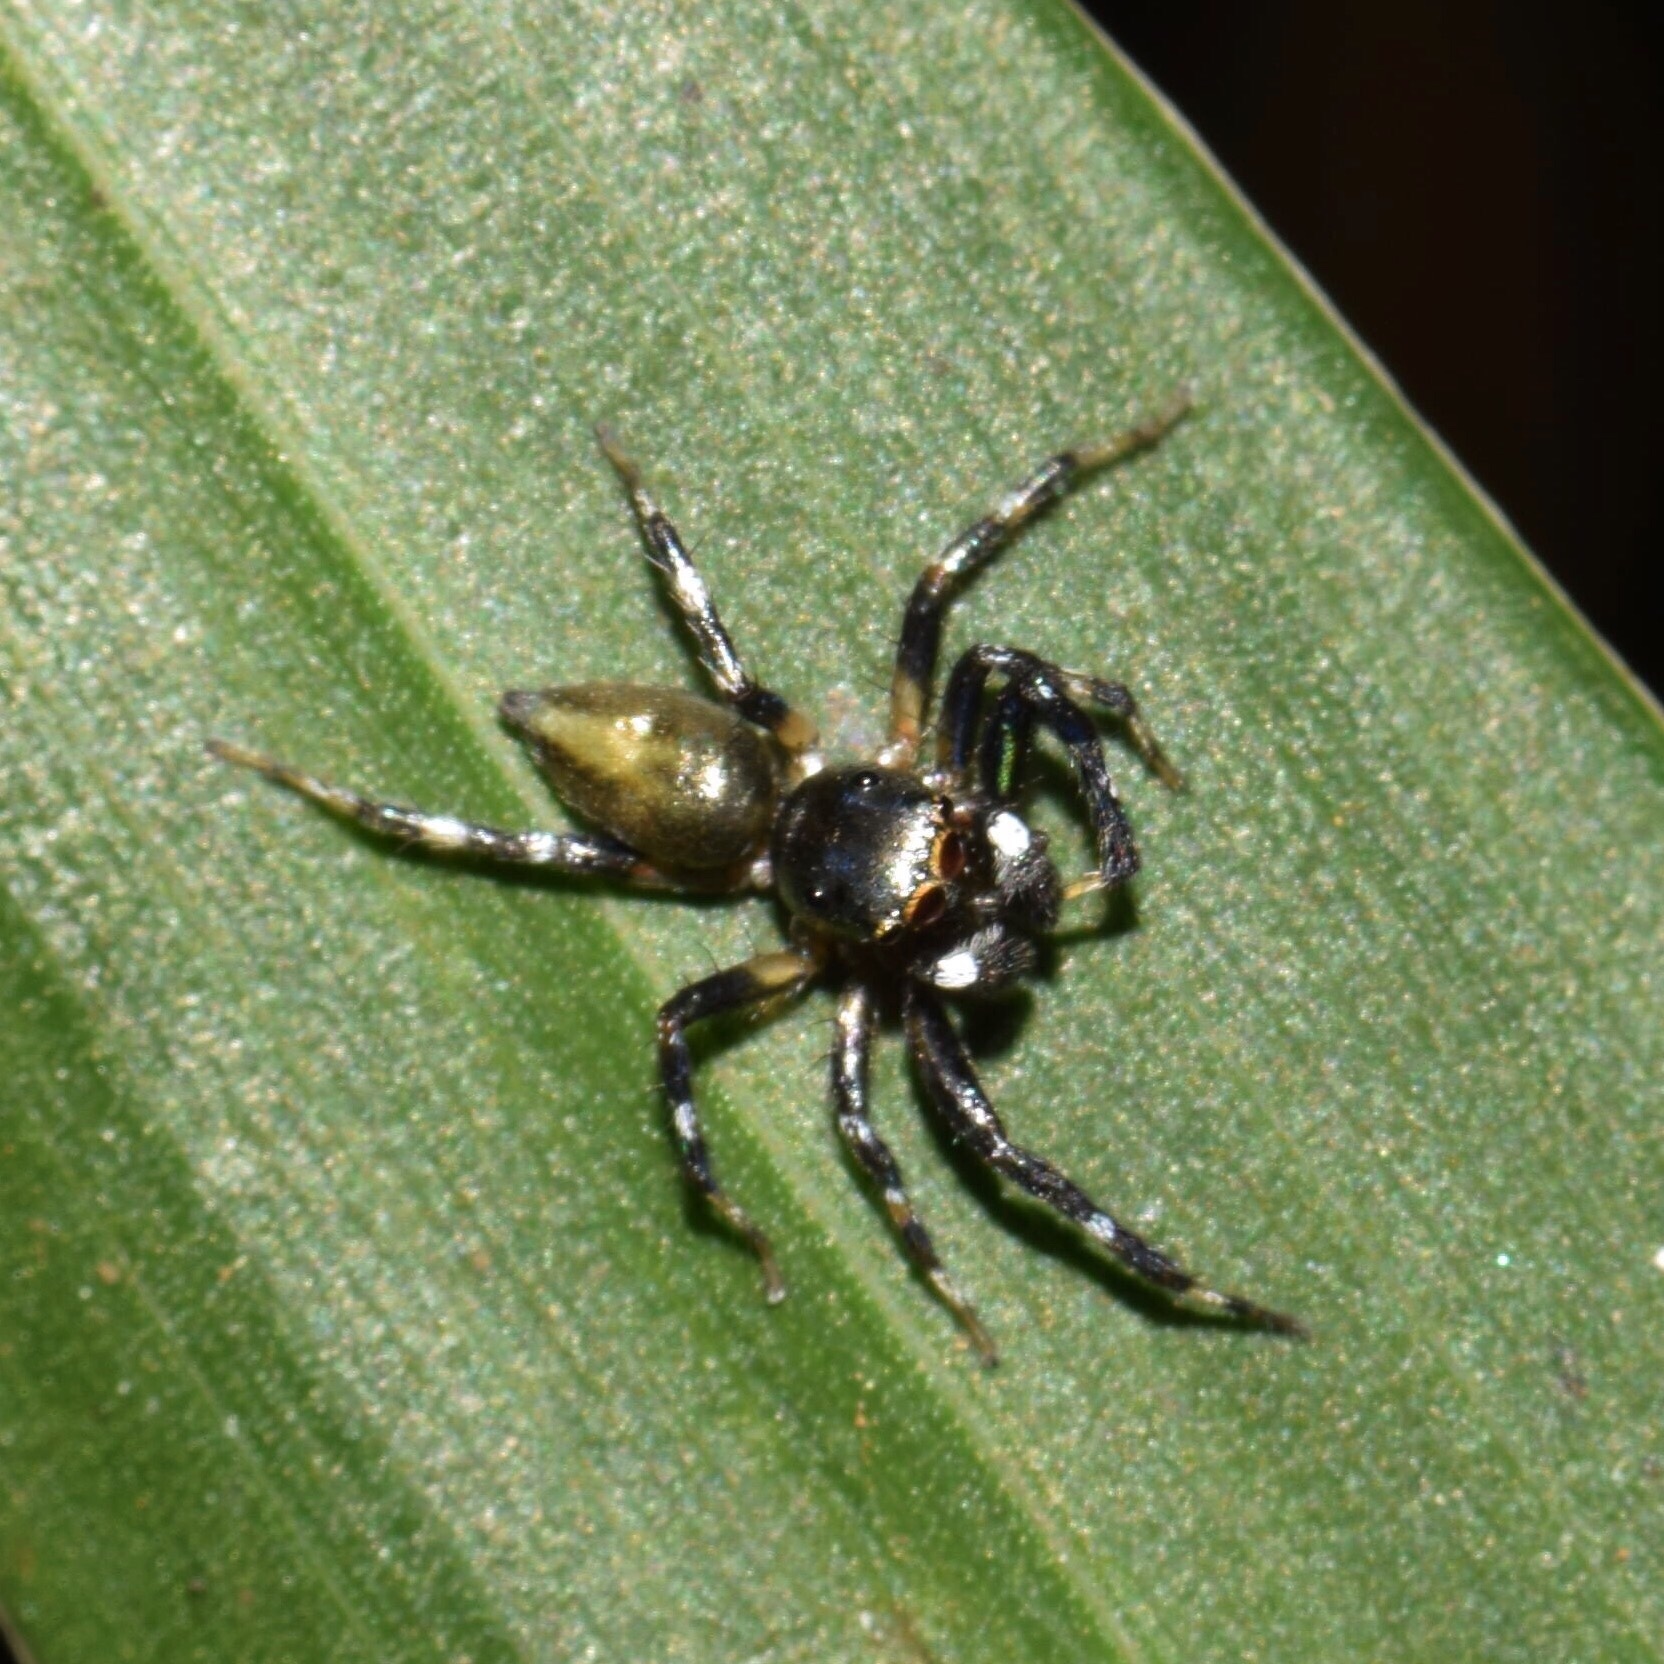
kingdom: Animalia
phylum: Arthropoda
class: Arachnida
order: Araneae
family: Salticidae
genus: Phintella
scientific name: Phintella aequipes
